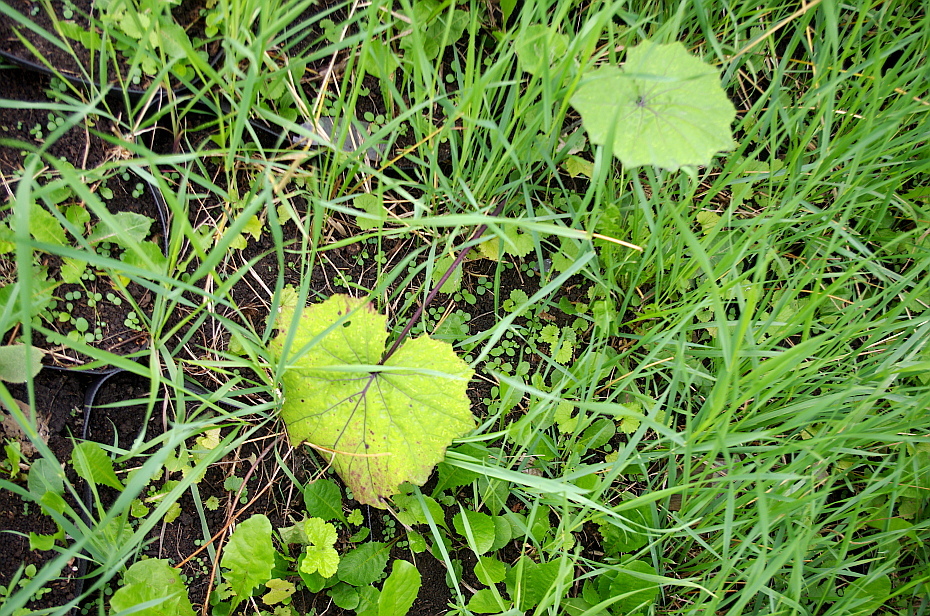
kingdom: Plantae
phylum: Tracheophyta
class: Magnoliopsida
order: Asterales
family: Asteraceae
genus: Tussilago
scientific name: Tussilago farfara
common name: Coltsfoot
